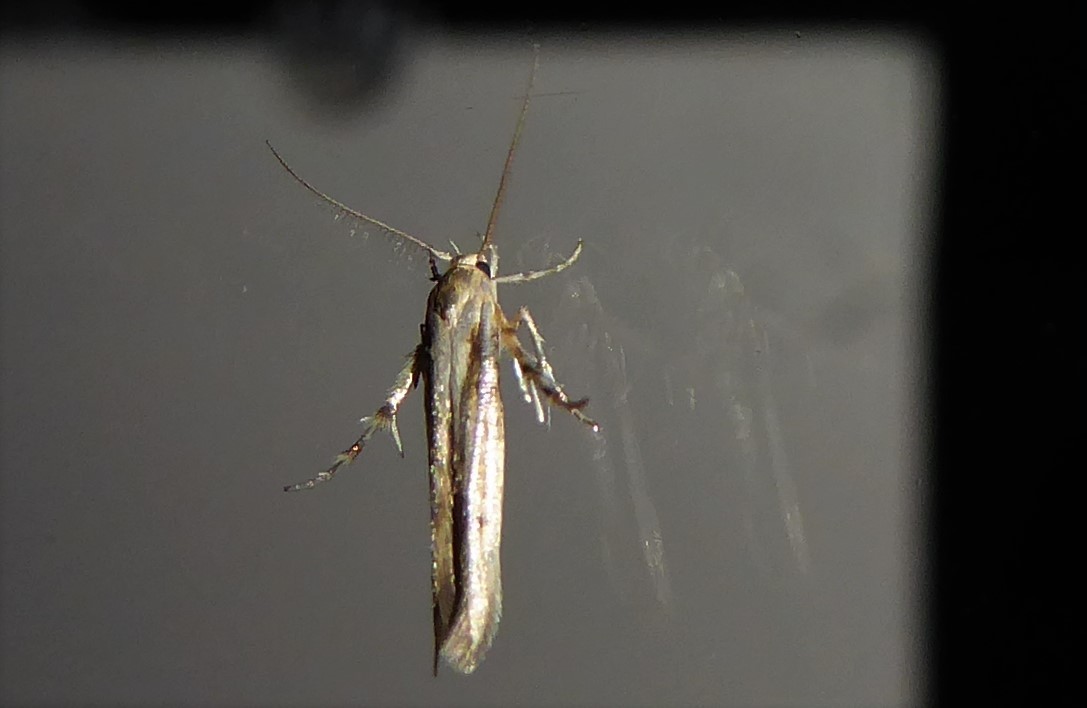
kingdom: Animalia
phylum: Arthropoda
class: Insecta
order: Lepidoptera
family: Stathmopodidae
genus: Stathmopoda
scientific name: Stathmopoda plumbiflua
